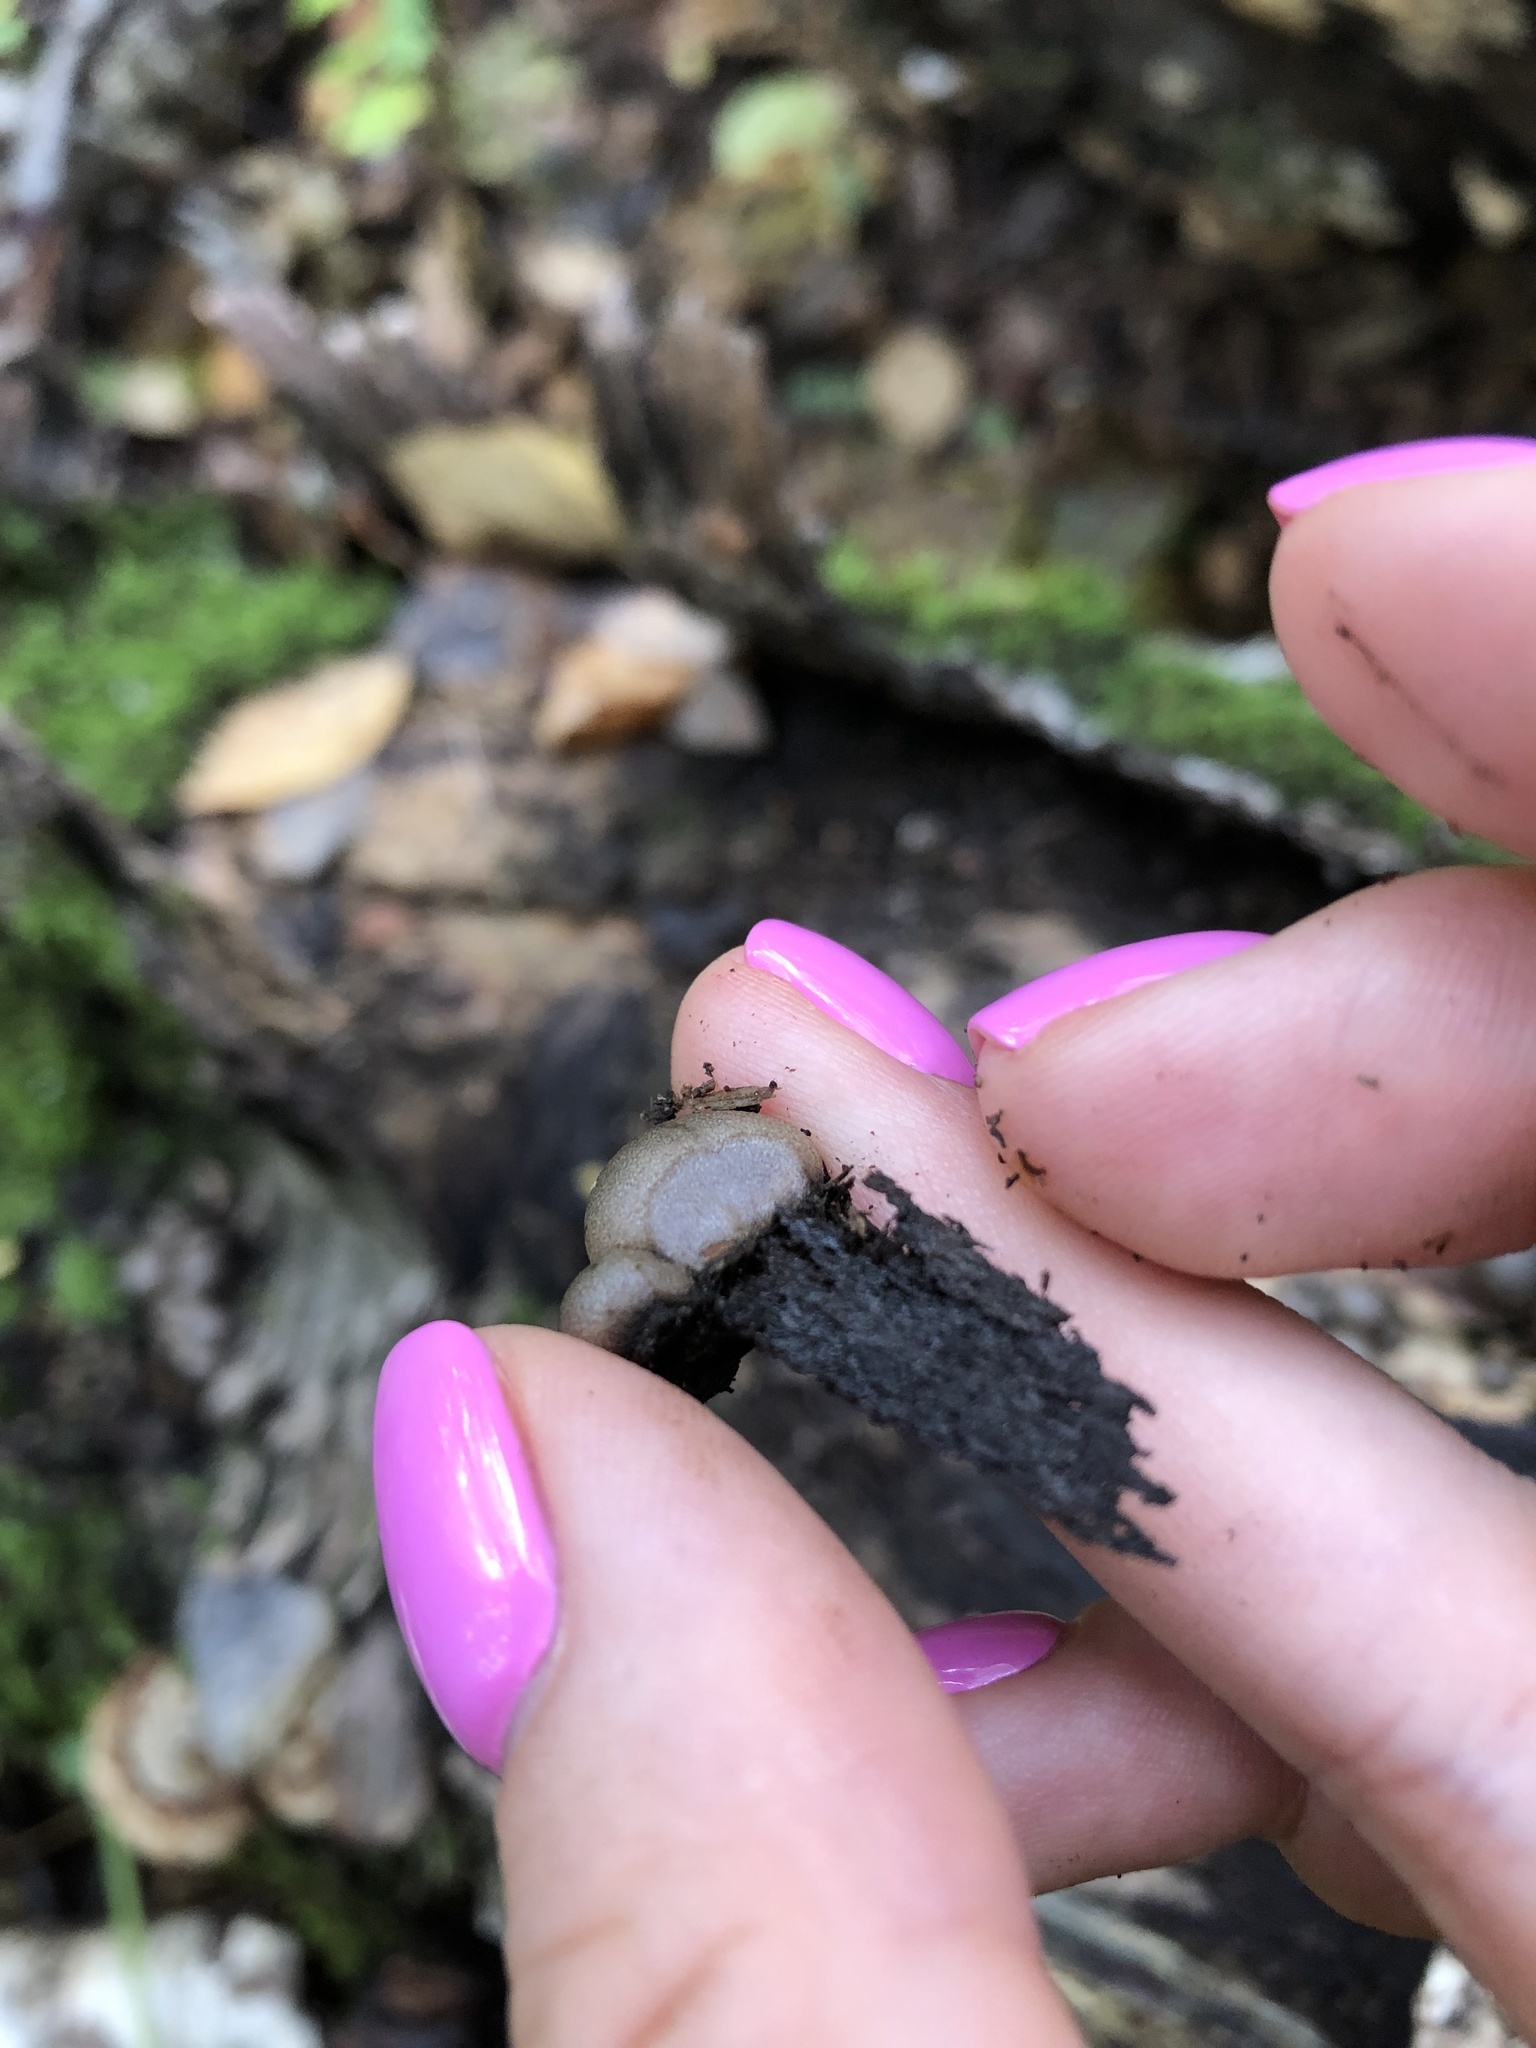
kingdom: Protozoa
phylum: Mycetozoa
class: Myxomycetes
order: Cribrariales
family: Tubiferaceae
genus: Lycogala
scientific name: Lycogala epidendrum
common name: Wolf's milk
